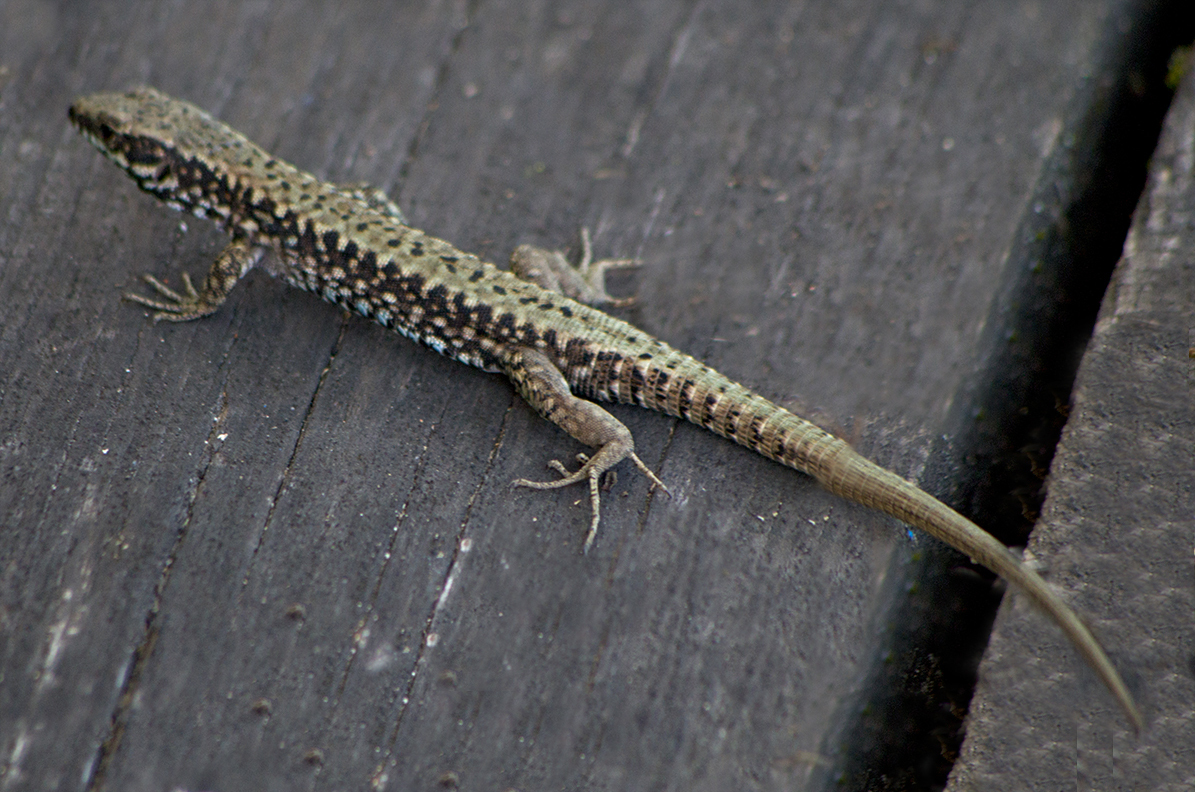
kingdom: Animalia
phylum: Chordata
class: Squamata
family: Lacertidae
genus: Podarcis
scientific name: Podarcis muralis
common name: Common wall lizard
